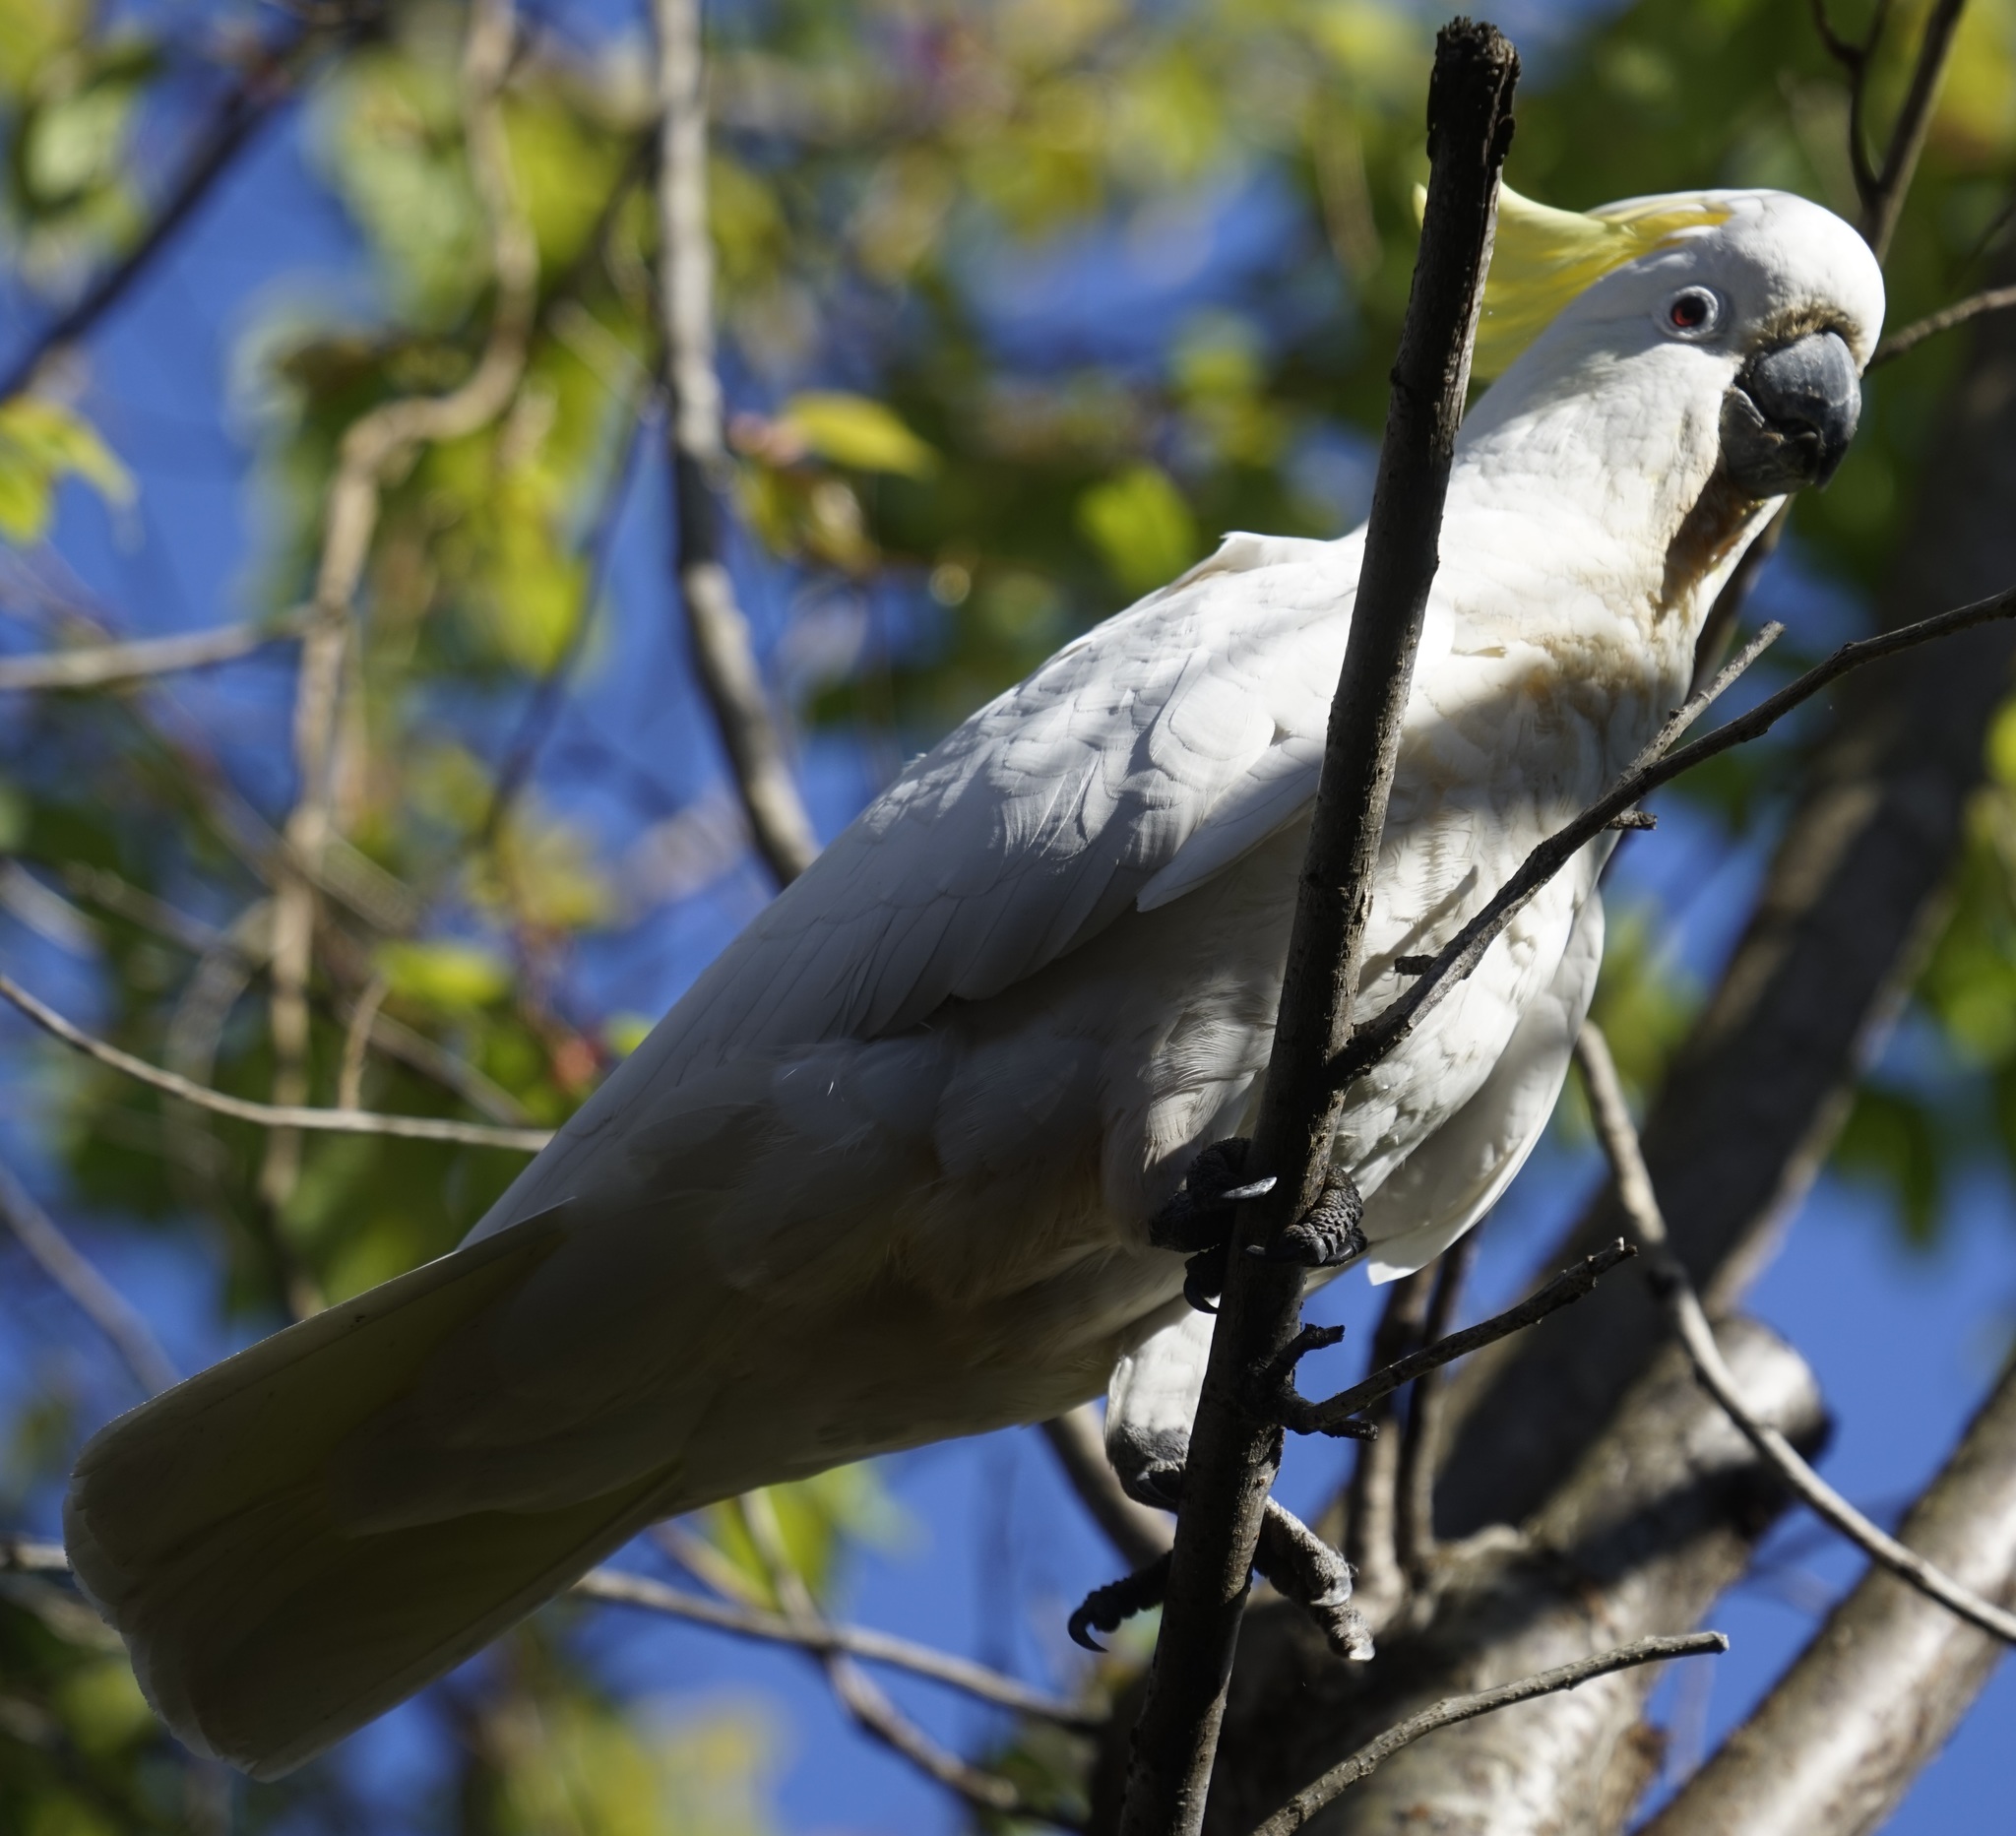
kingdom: Animalia
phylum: Chordata
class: Aves
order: Psittaciformes
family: Psittacidae
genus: Cacatua
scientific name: Cacatua galerita
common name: Sulphur-crested cockatoo
